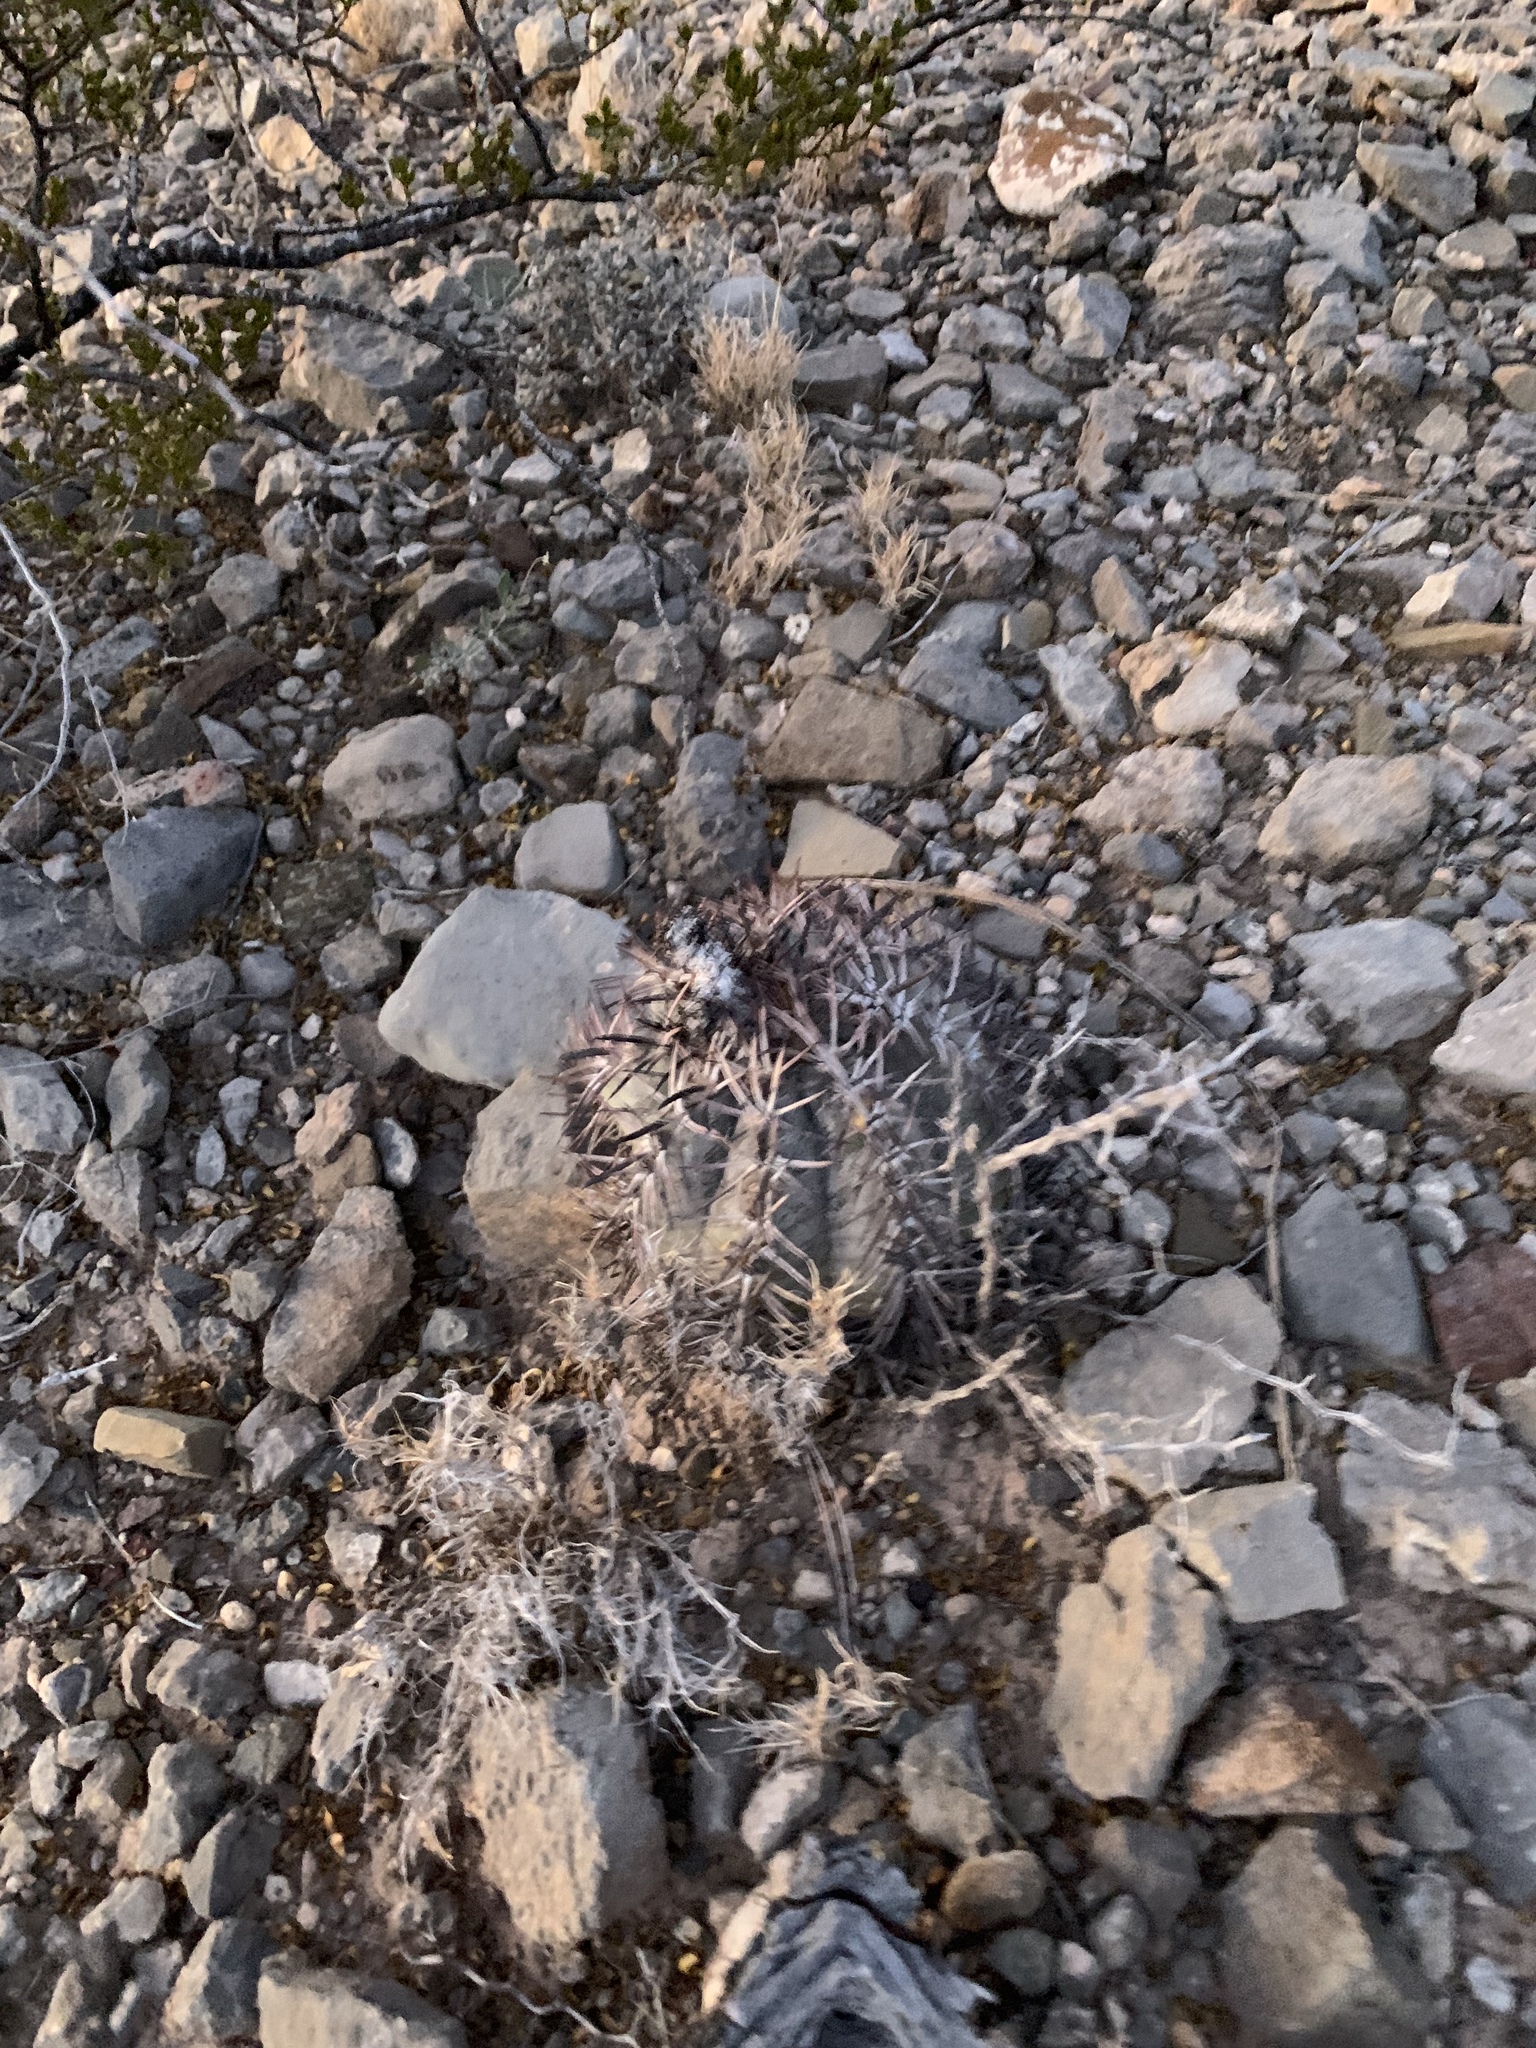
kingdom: Plantae
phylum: Tracheophyta
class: Magnoliopsida
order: Caryophyllales
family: Cactaceae
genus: Echinocactus
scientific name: Echinocactus horizonthalonius
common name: Devilshead
